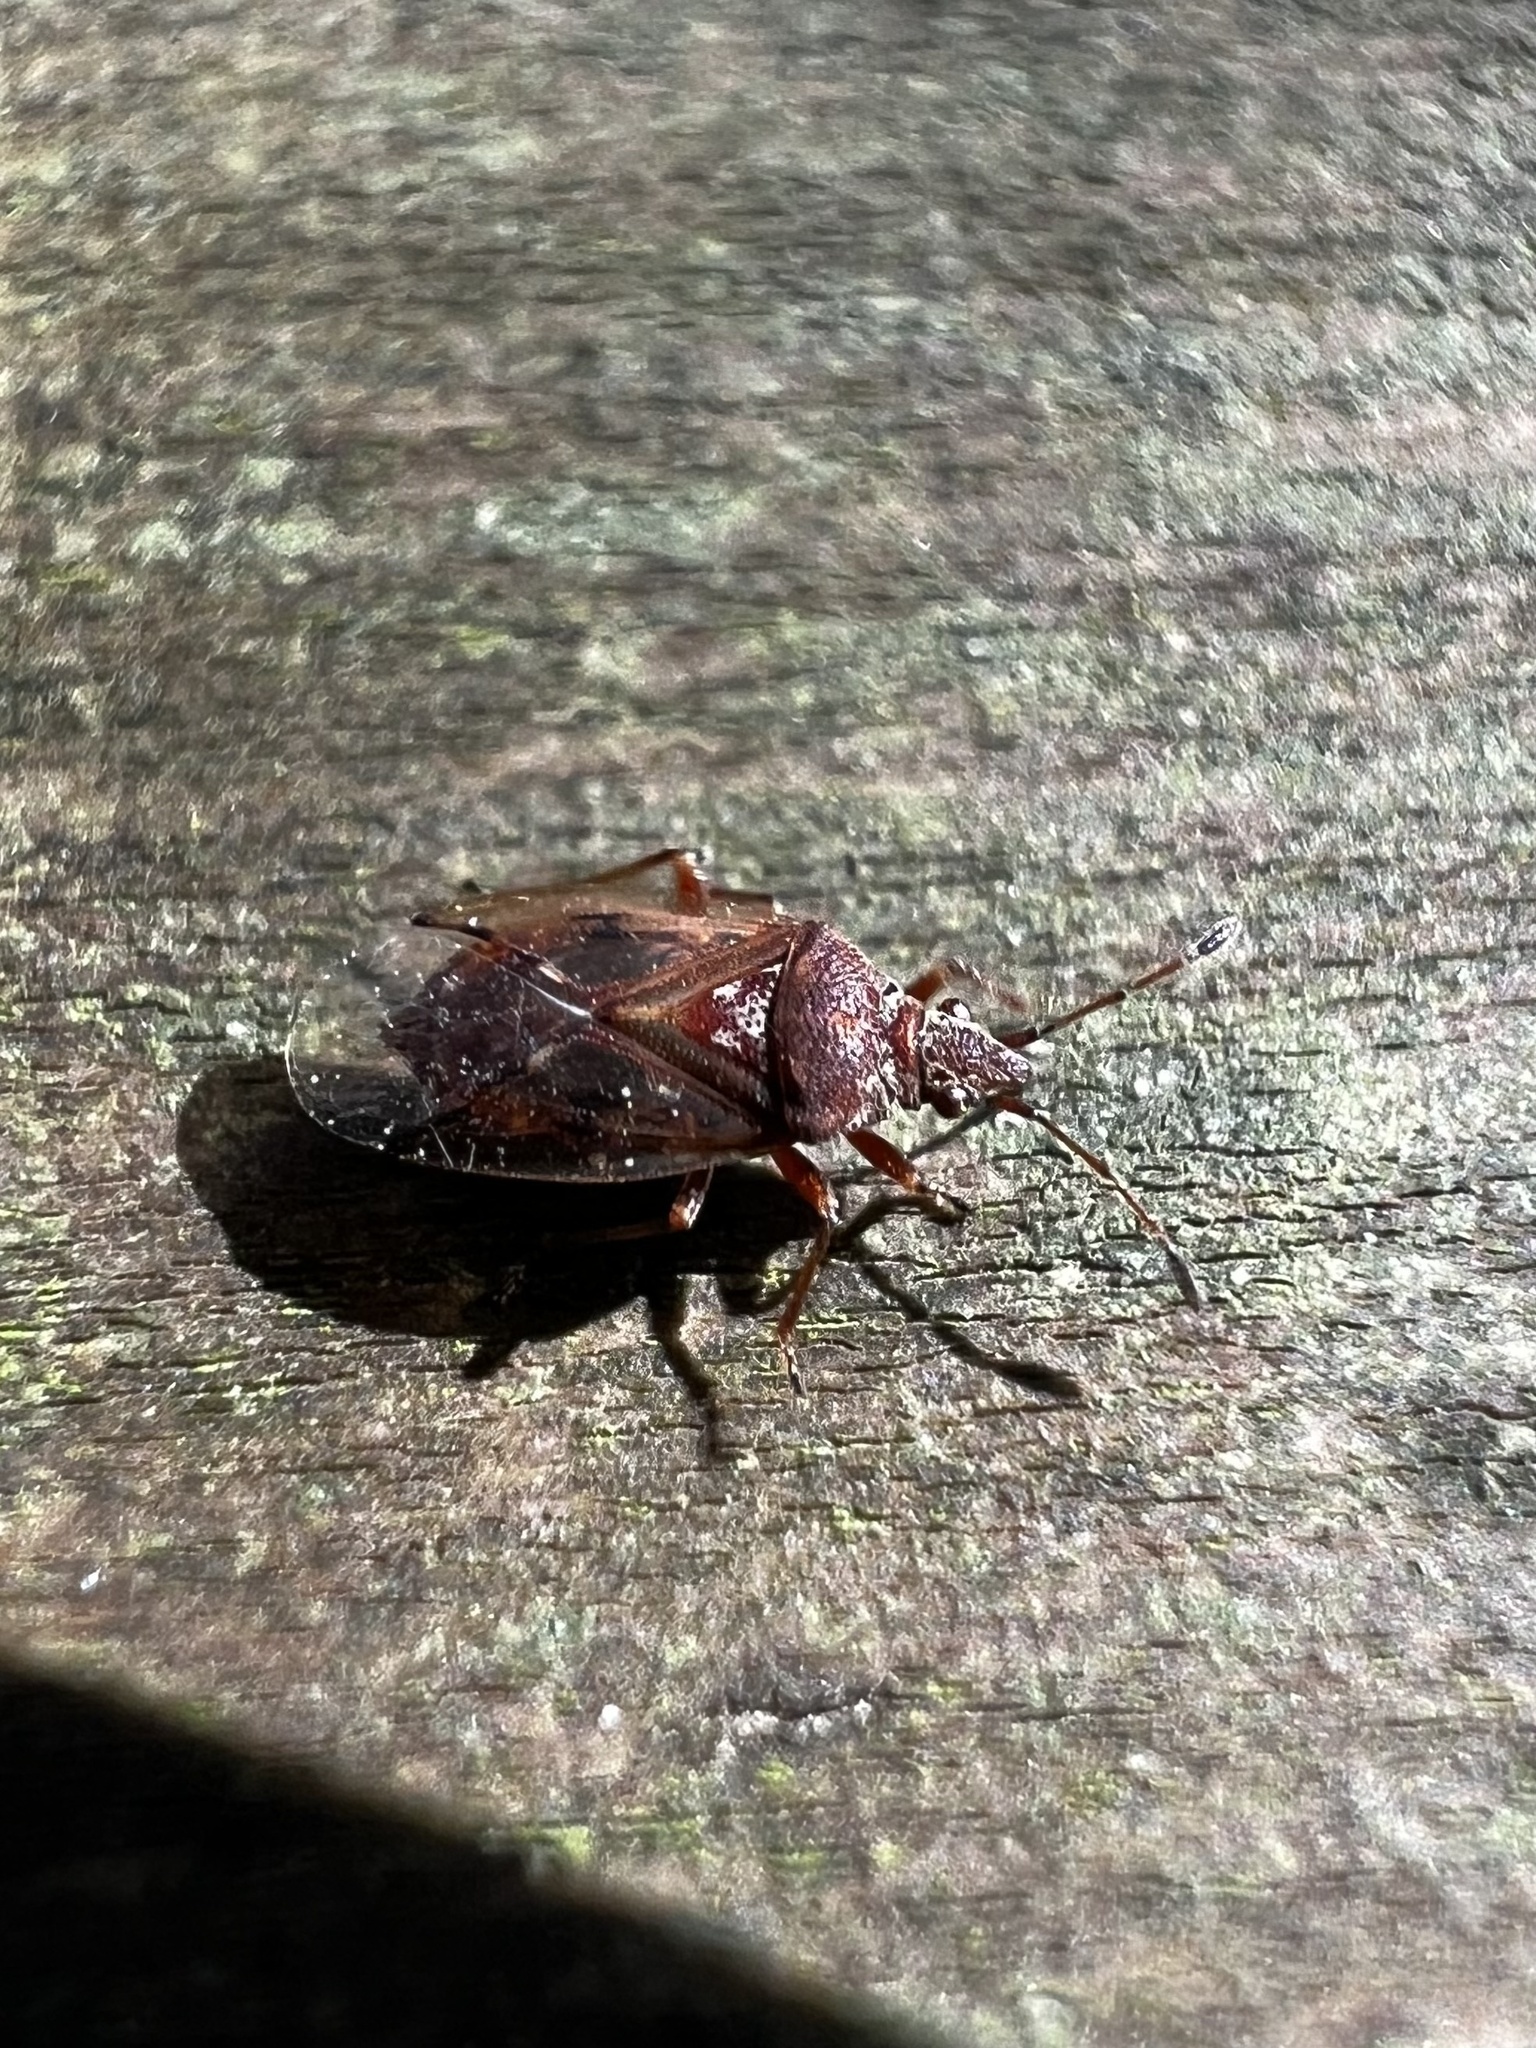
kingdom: Animalia
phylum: Arthropoda
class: Insecta
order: Hemiptera
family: Lygaeidae
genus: Kleidocerys
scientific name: Kleidocerys resedae
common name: Birch catkin bug
